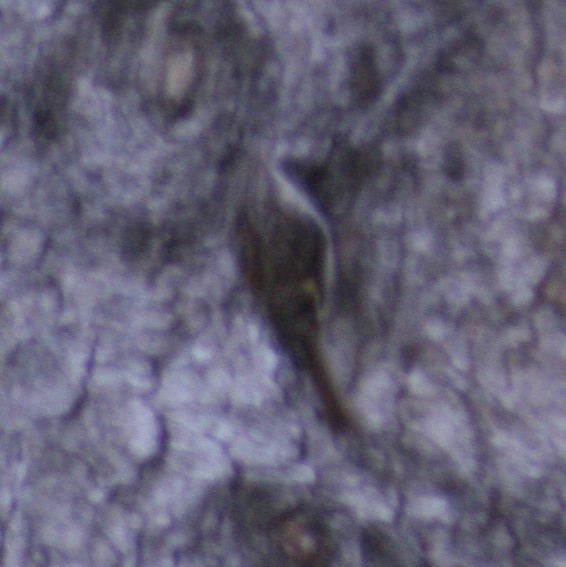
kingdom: Animalia
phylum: Chordata
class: Aves
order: Passeriformes
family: Certhiidae
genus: Certhia
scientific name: Certhia americana
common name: Brown creeper
